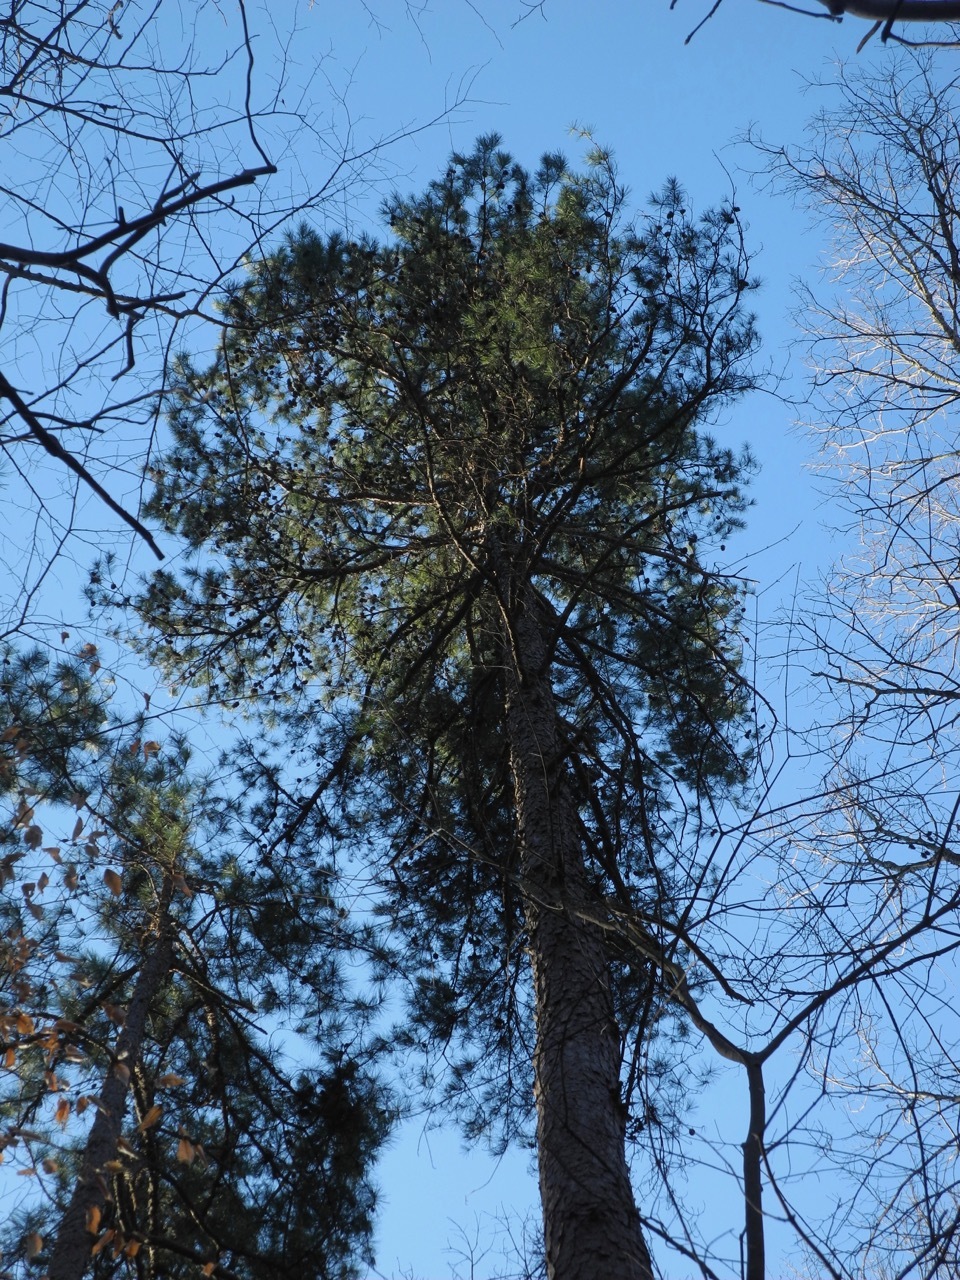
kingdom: Plantae
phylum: Tracheophyta
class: Pinopsida
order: Pinales
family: Pinaceae
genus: Pinus
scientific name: Pinus echinata
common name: Shortleaf pine
